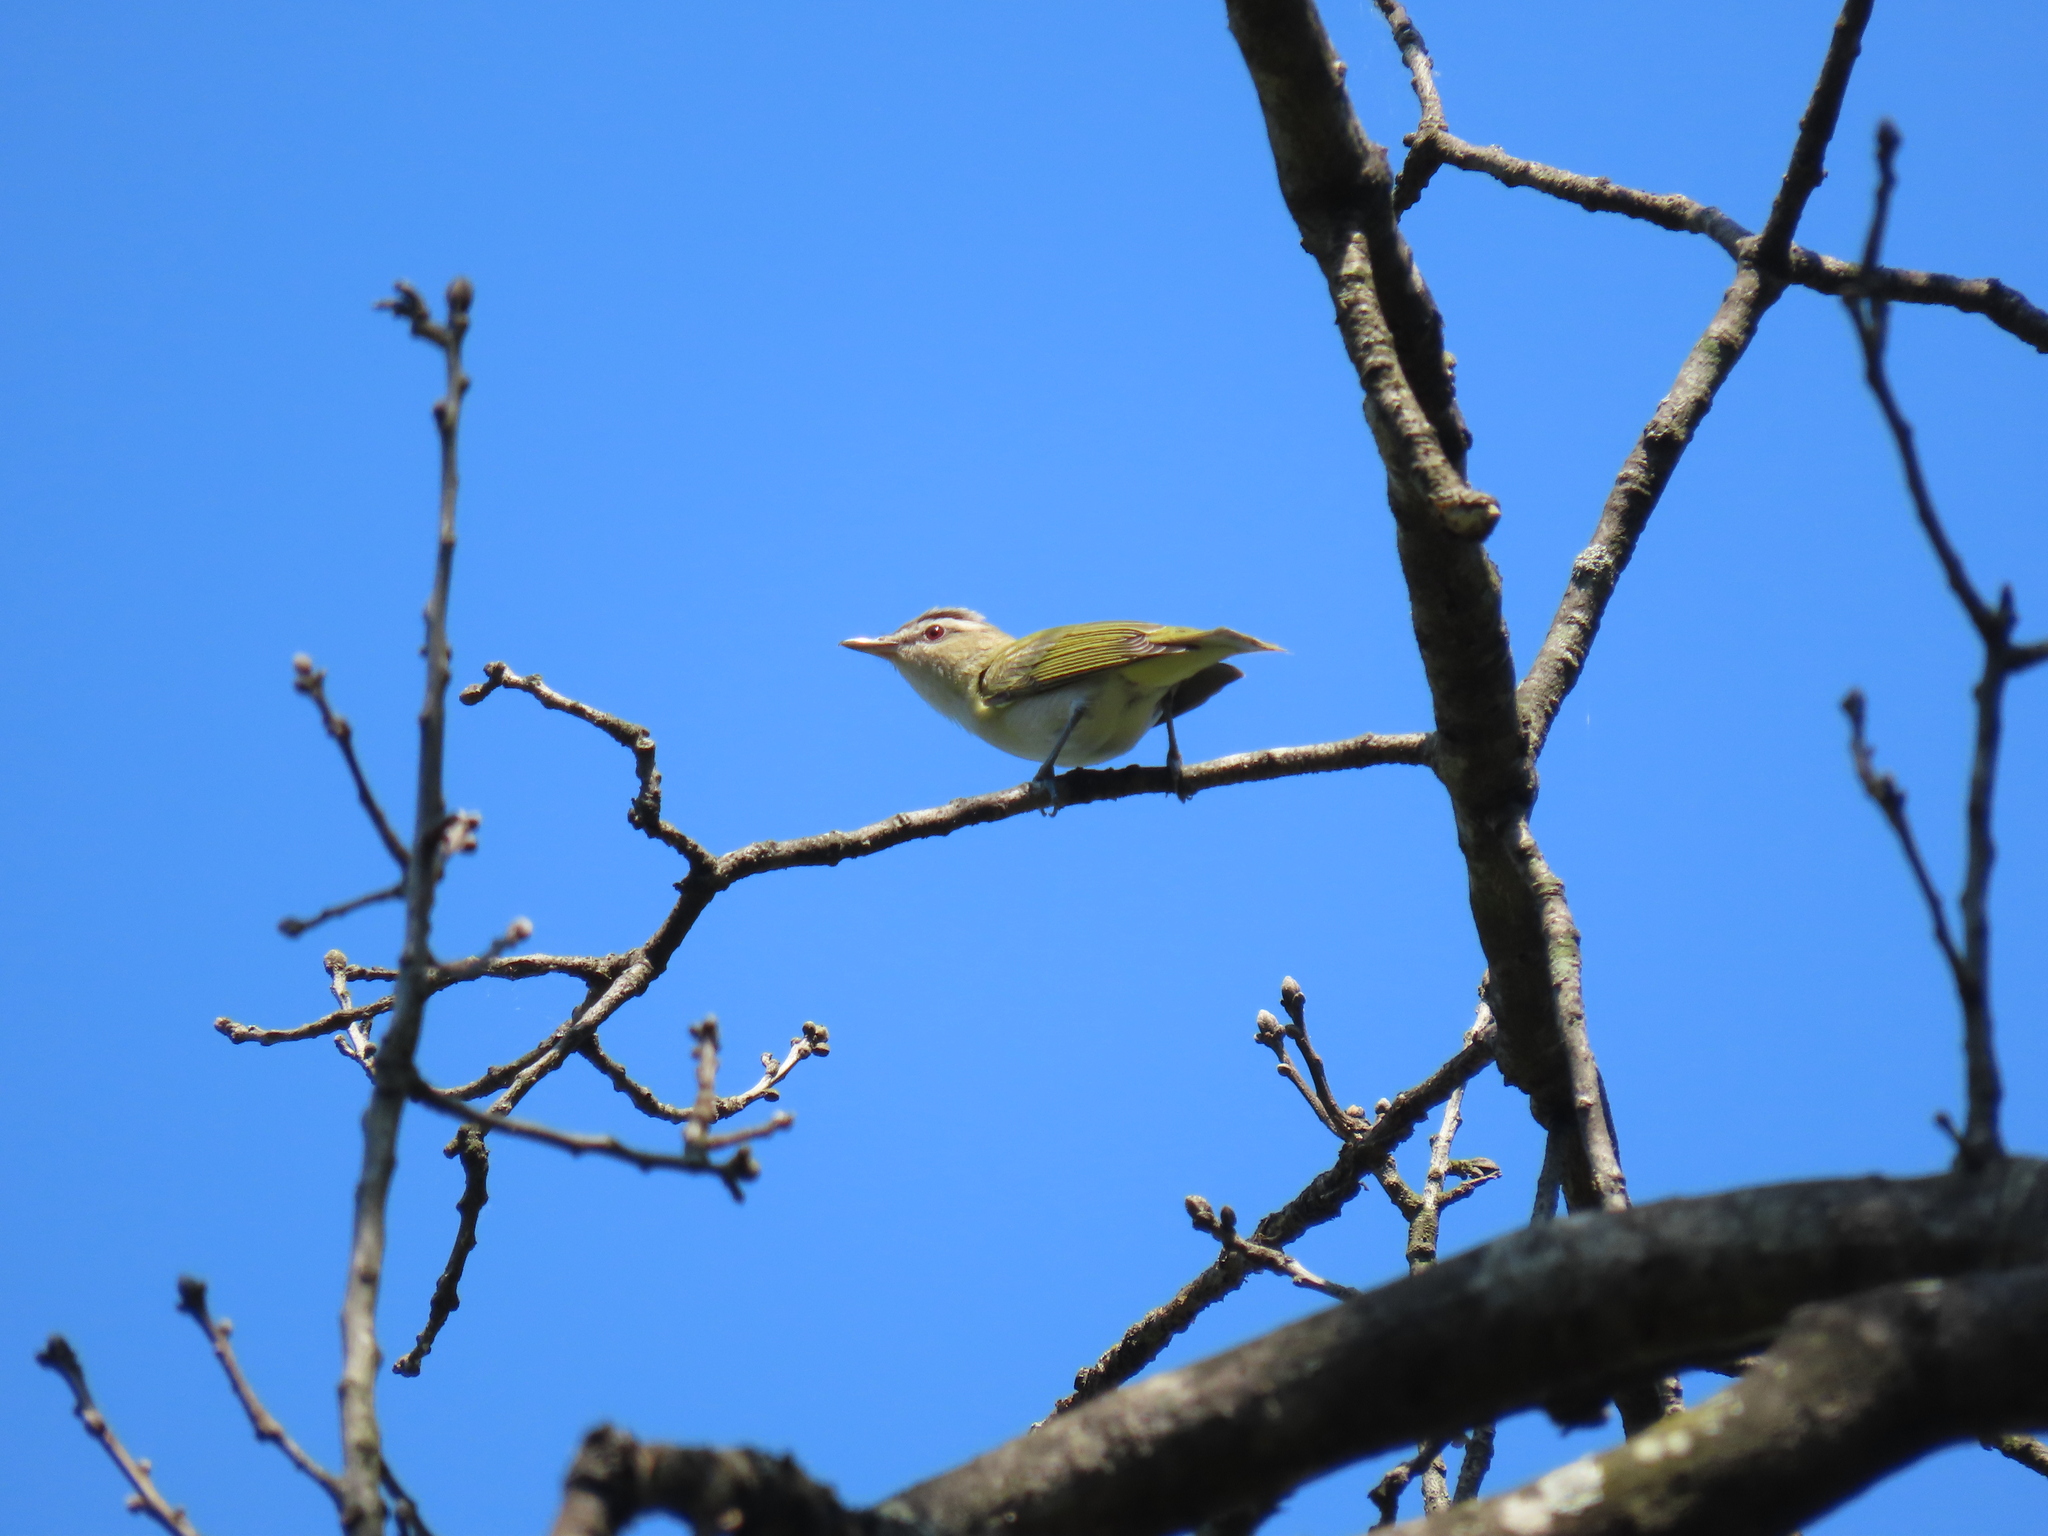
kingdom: Animalia
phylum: Chordata
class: Aves
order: Passeriformes
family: Vireonidae
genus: Vireo
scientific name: Vireo olivaceus
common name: Red-eyed vireo
